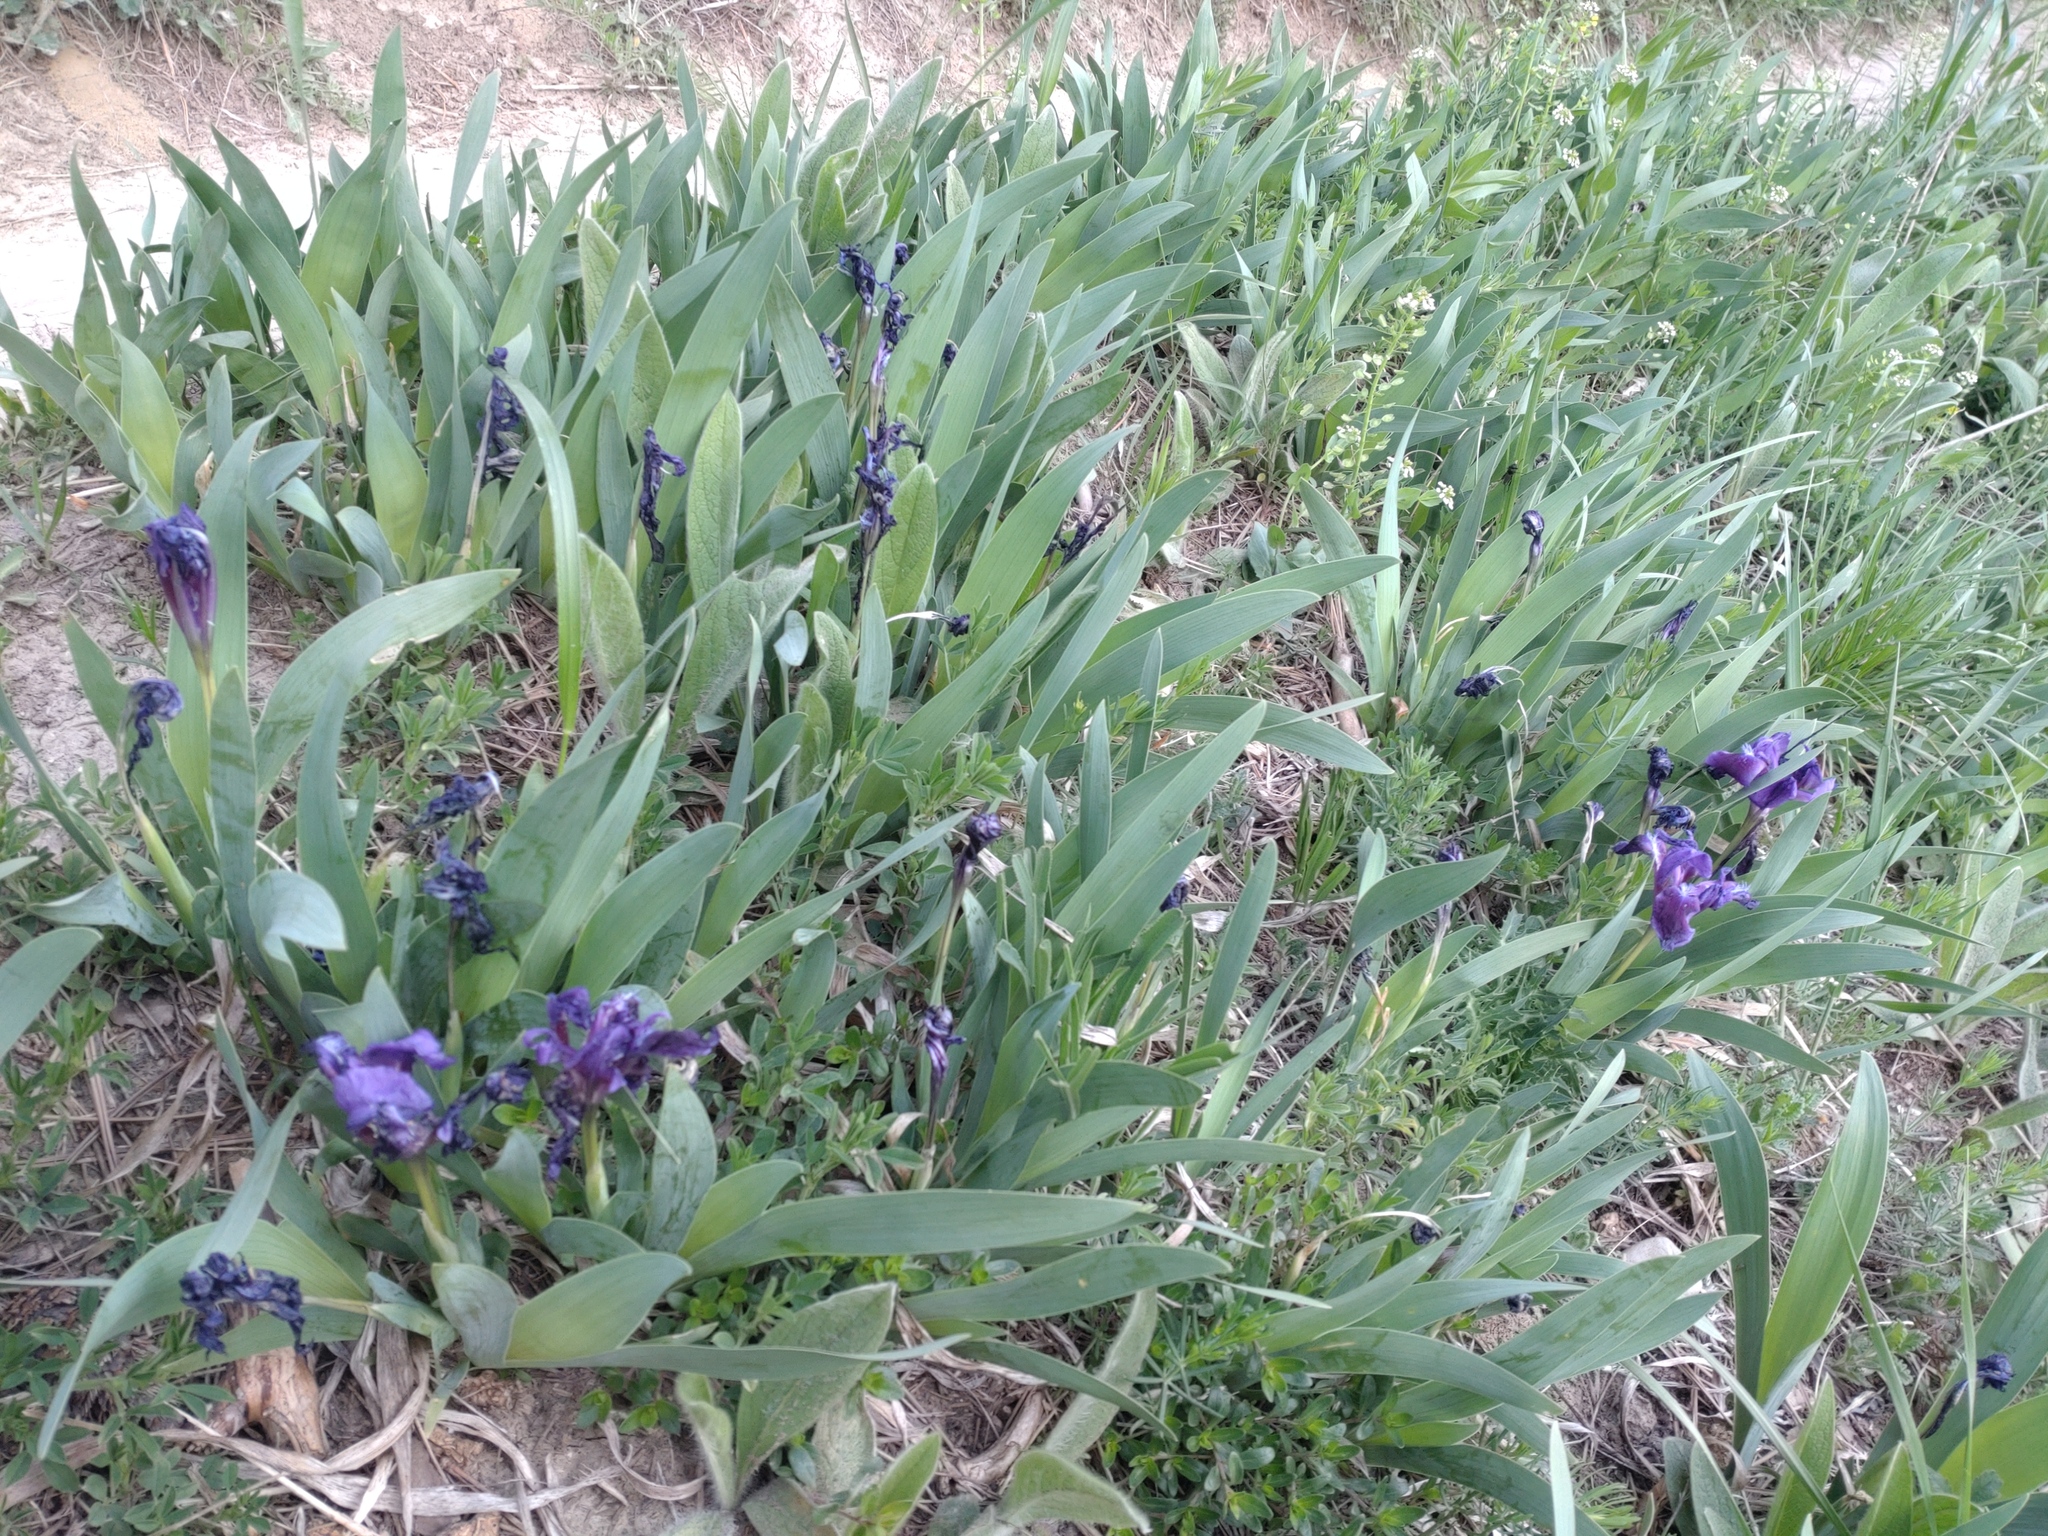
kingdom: Plantae
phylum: Tracheophyta
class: Liliopsida
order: Asparagales
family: Iridaceae
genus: Iris
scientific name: Iris pumila
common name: Dwarf iris
